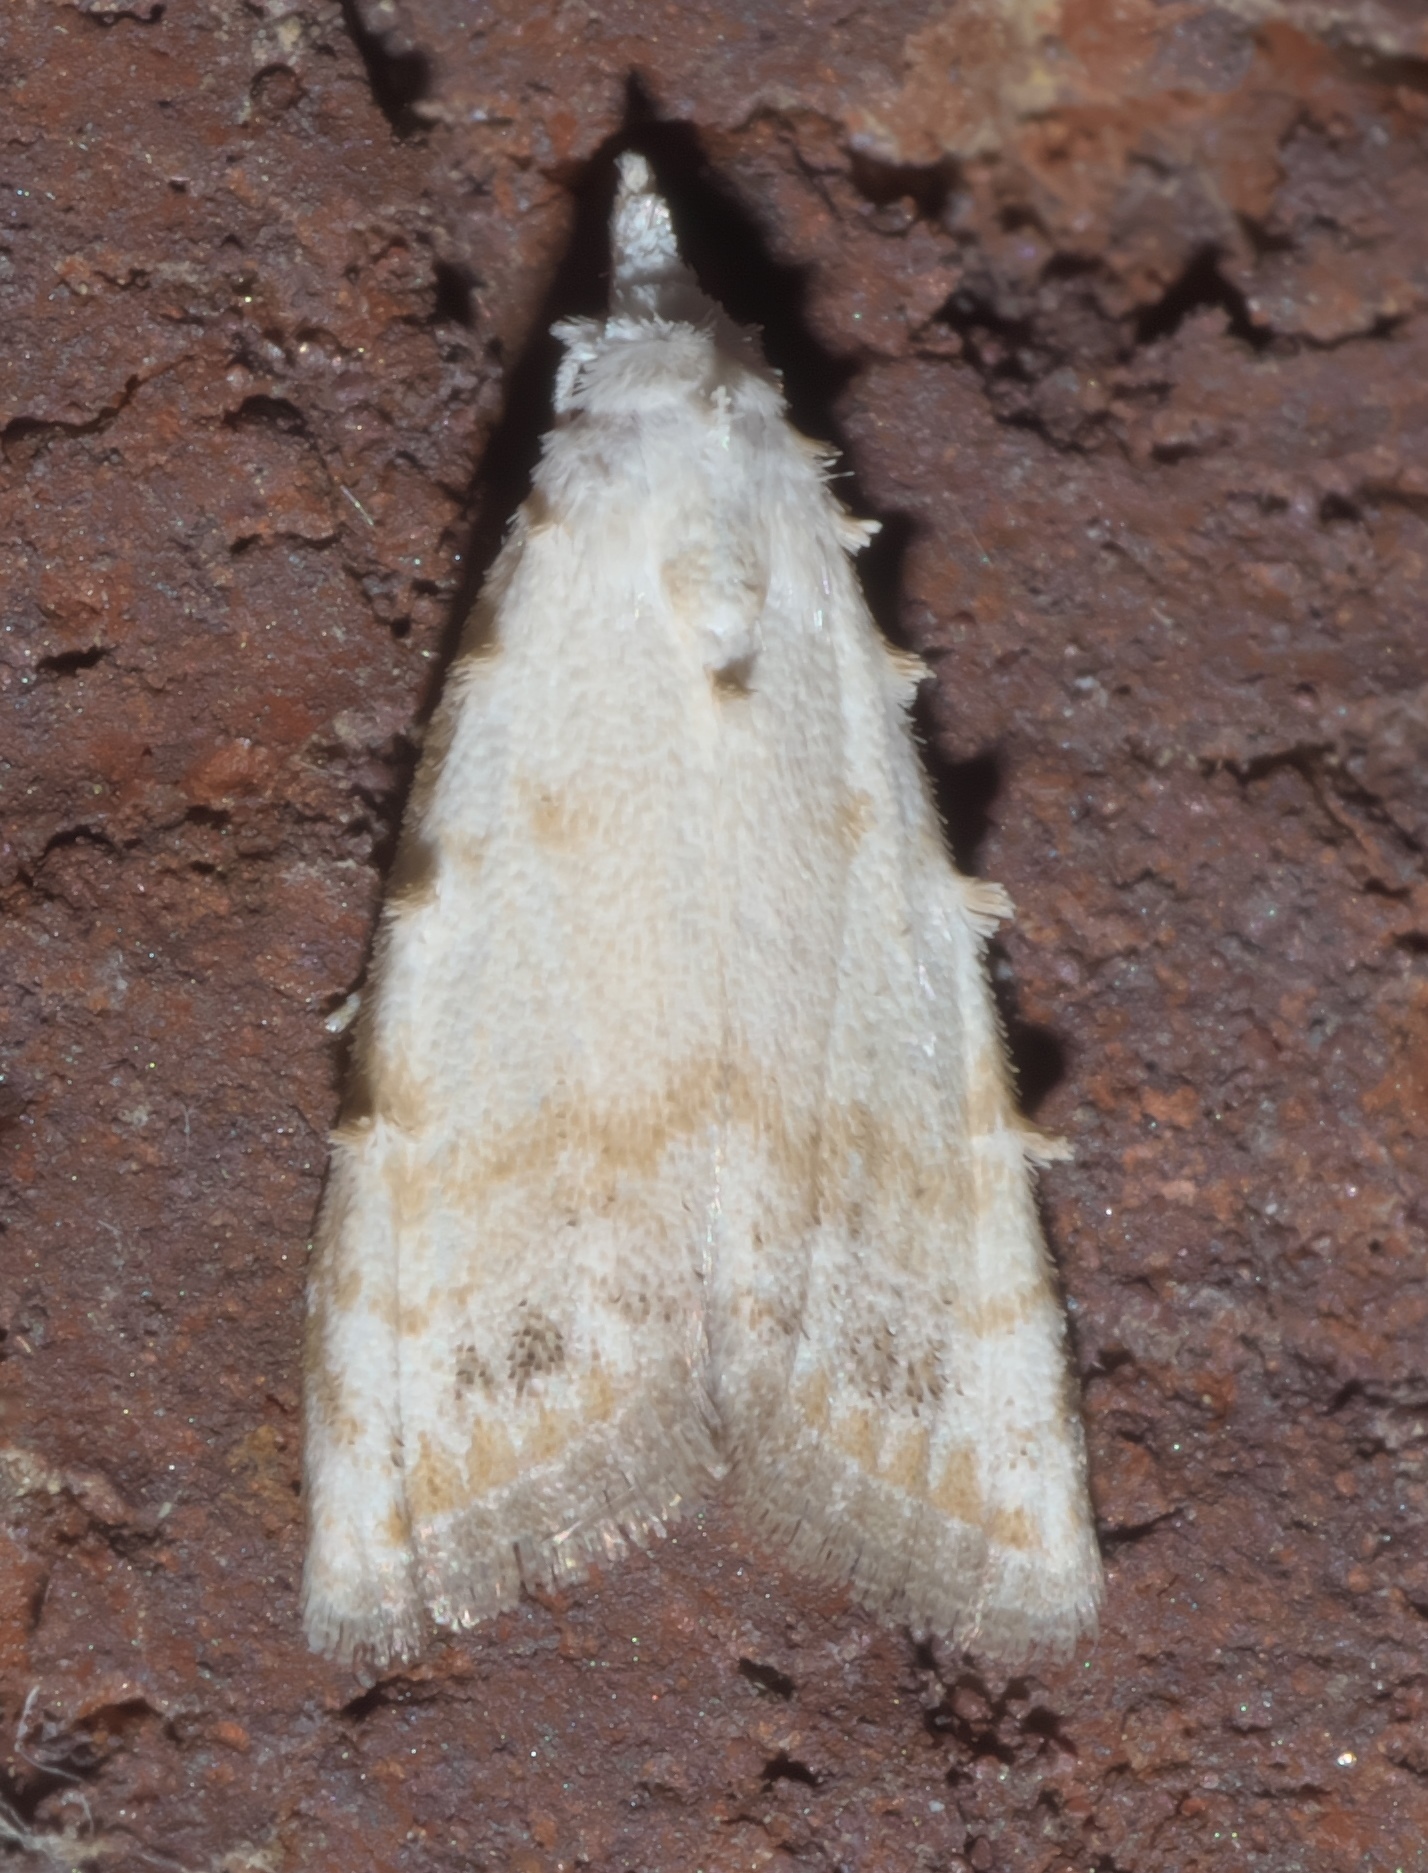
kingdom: Animalia
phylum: Arthropoda
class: Insecta
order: Lepidoptera
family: Nolidae
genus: Nola
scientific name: Nola cereella
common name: Sorghum webworm moth
